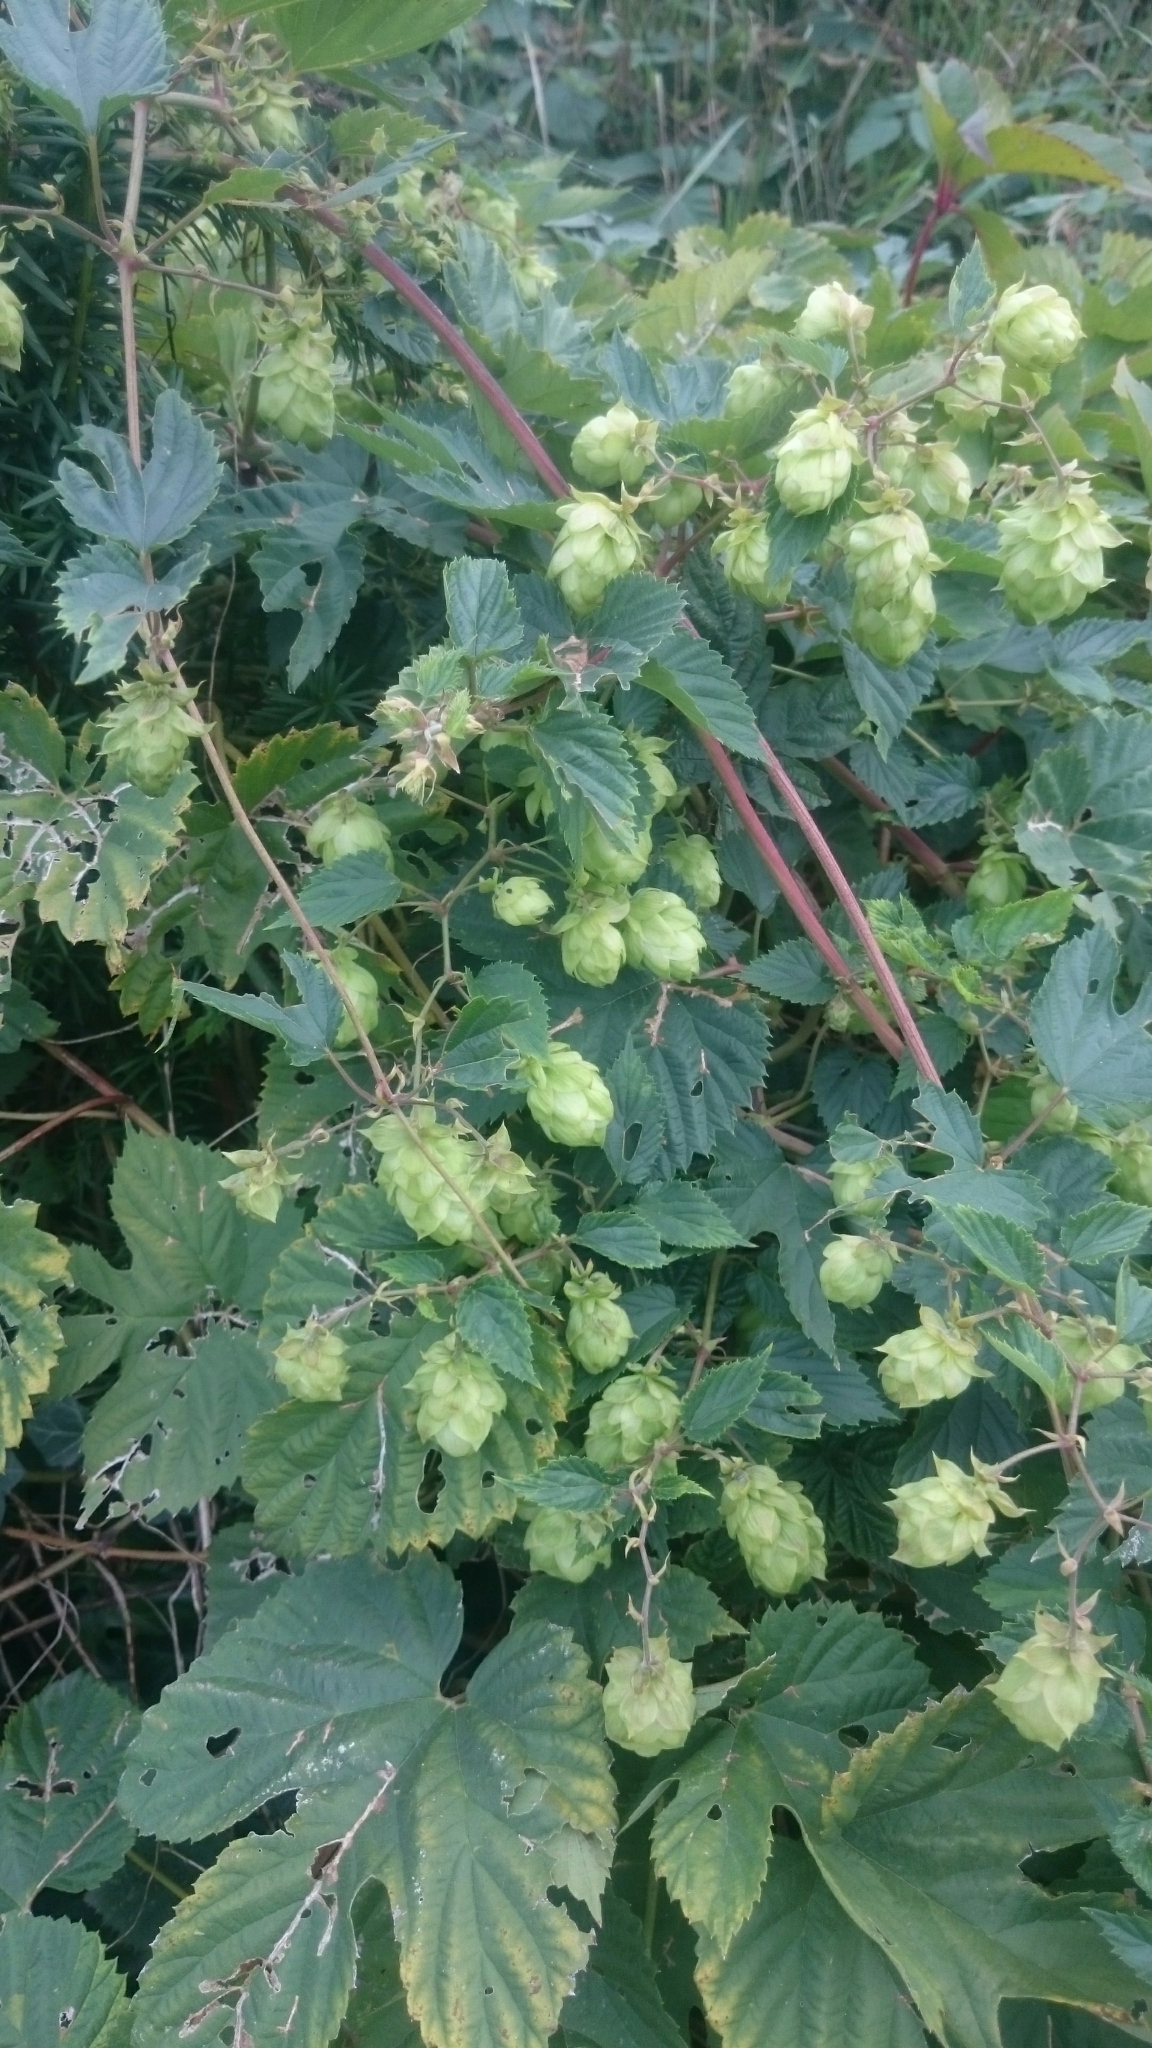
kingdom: Plantae
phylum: Tracheophyta
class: Magnoliopsida
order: Rosales
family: Cannabaceae
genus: Humulus
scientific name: Humulus lupulus
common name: Hop
